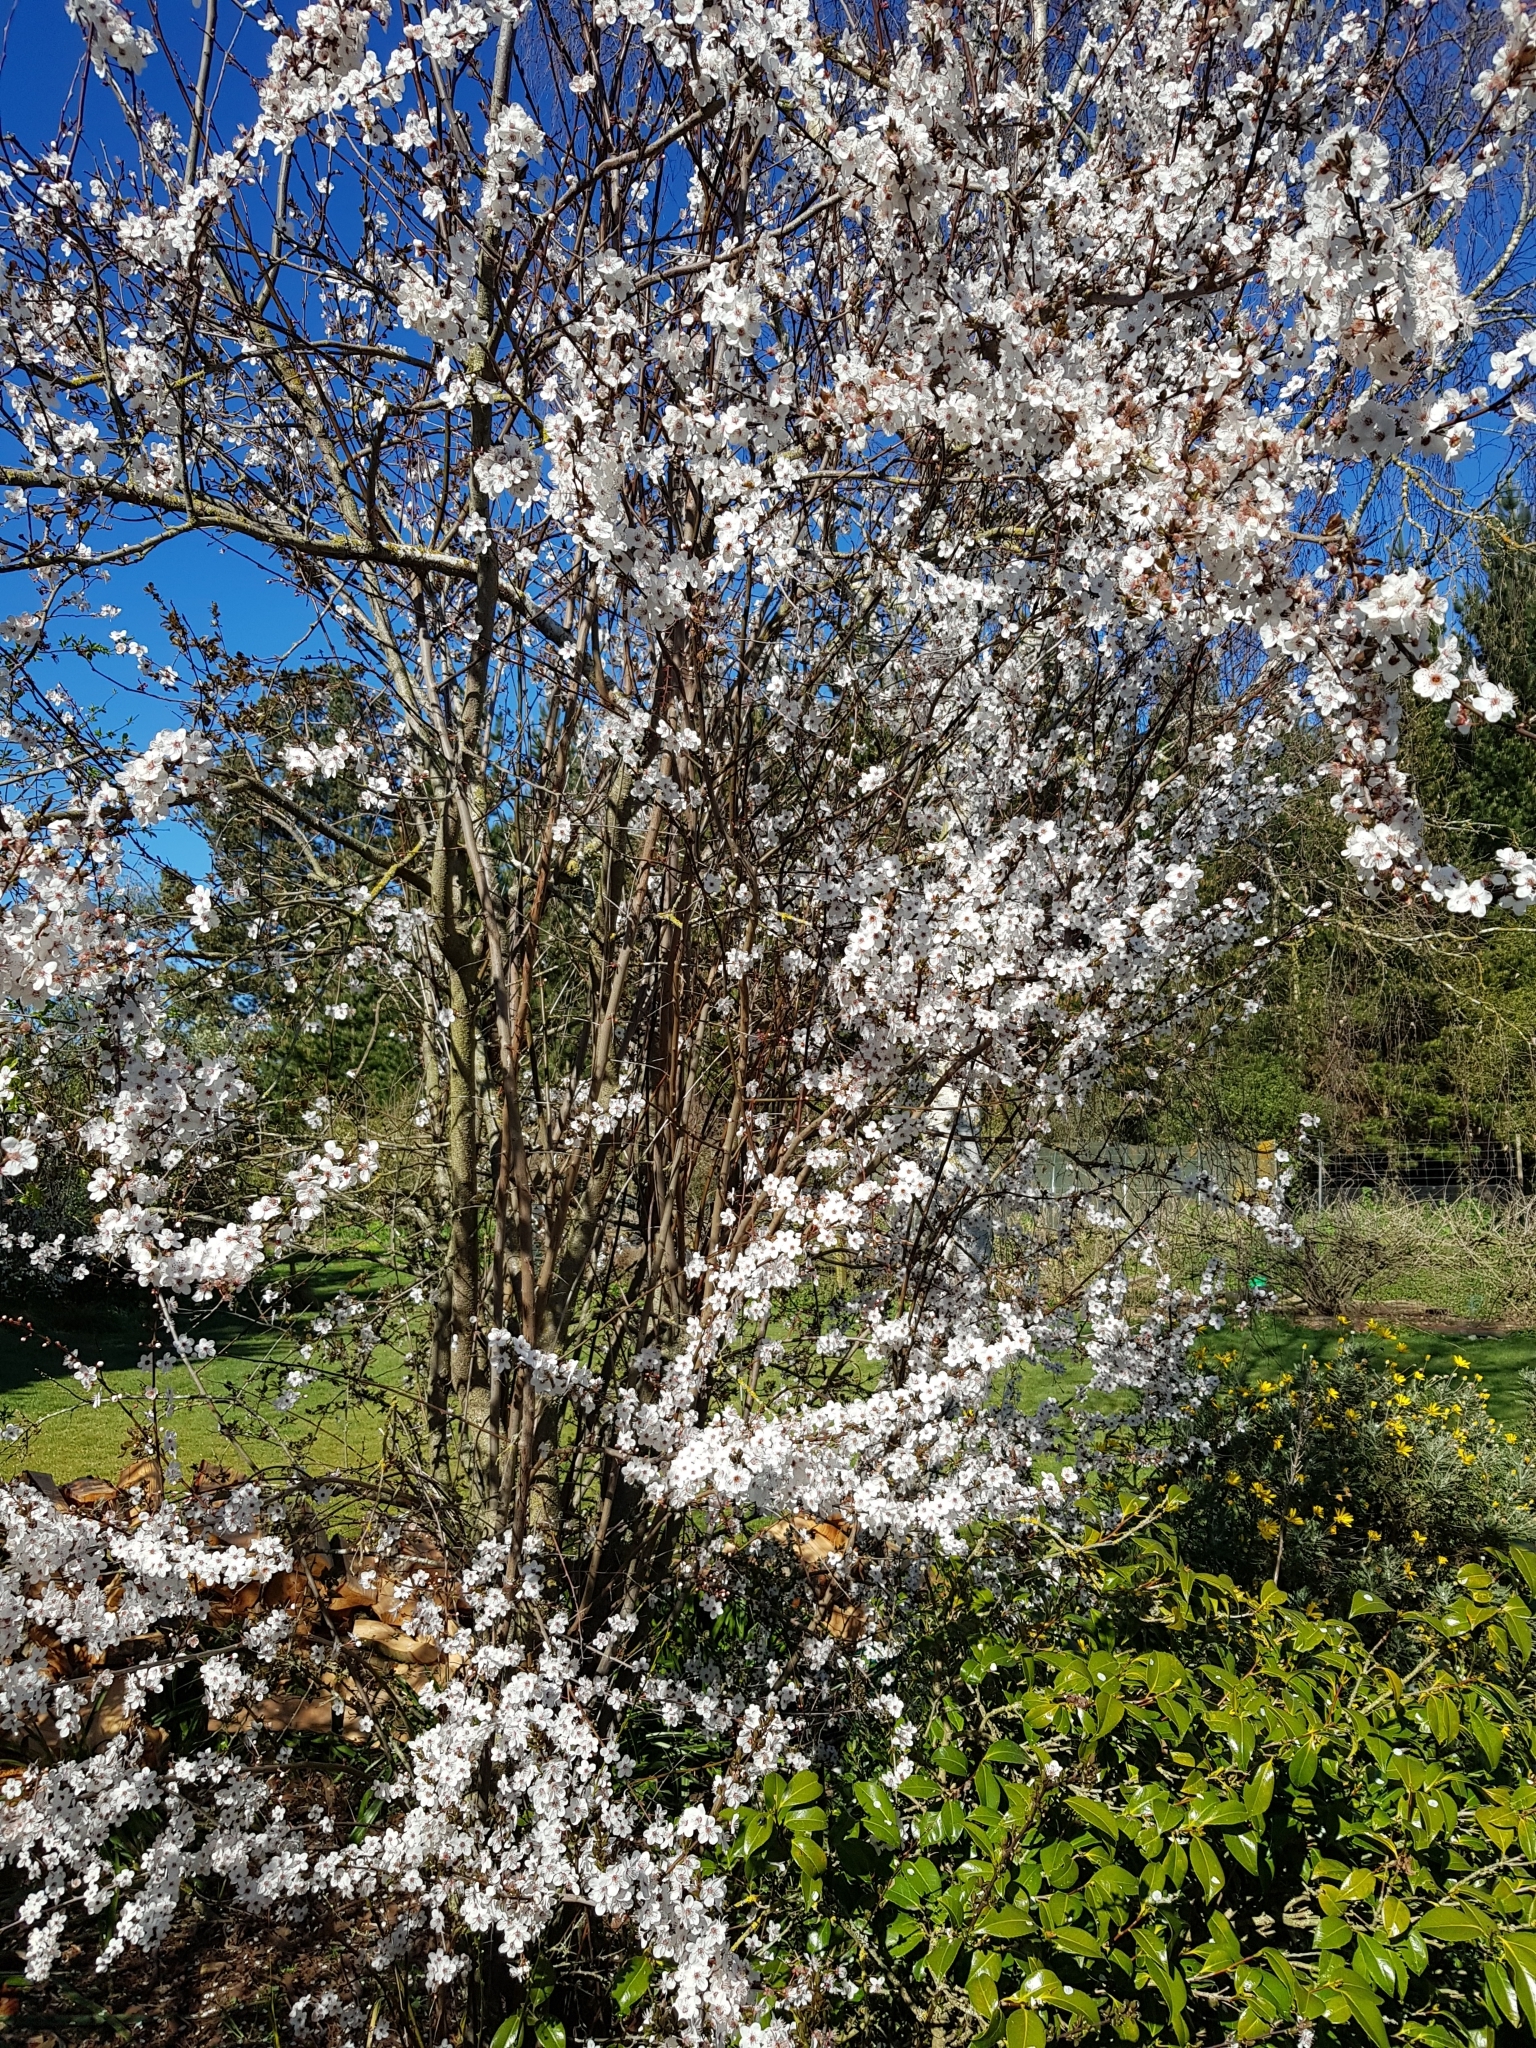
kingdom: Animalia
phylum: Arthropoda
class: Insecta
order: Lepidoptera
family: Nymphalidae
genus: Vanessa
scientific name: Vanessa gonerilla
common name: New zealand red admiral
